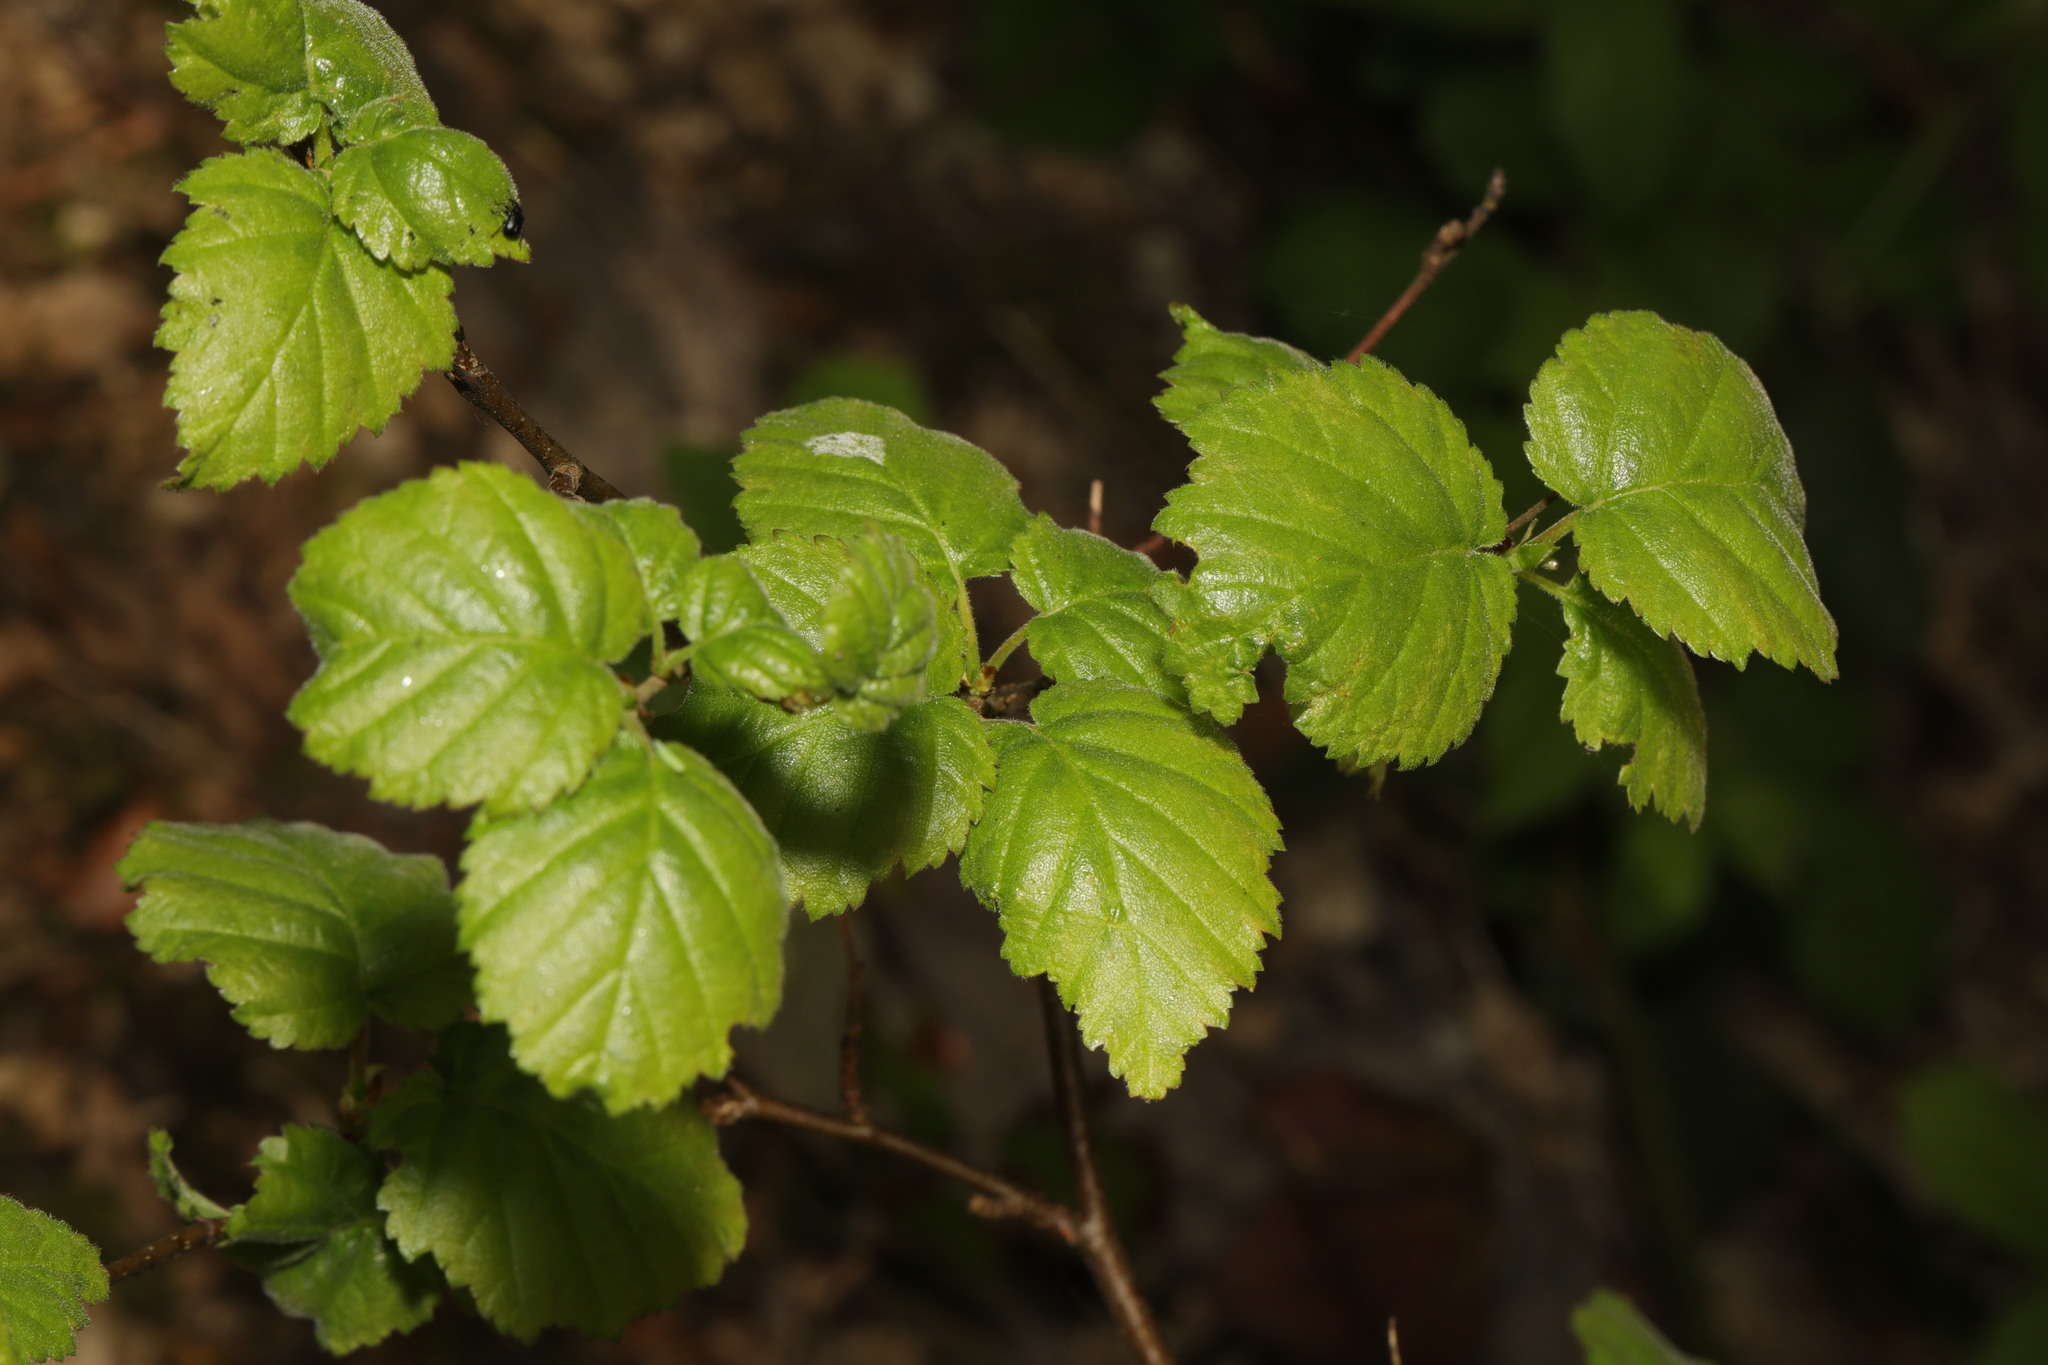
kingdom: Plantae
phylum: Tracheophyta
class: Magnoliopsida
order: Fagales
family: Betulaceae
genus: Betula
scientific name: Betula pubescens
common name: Downy birch
